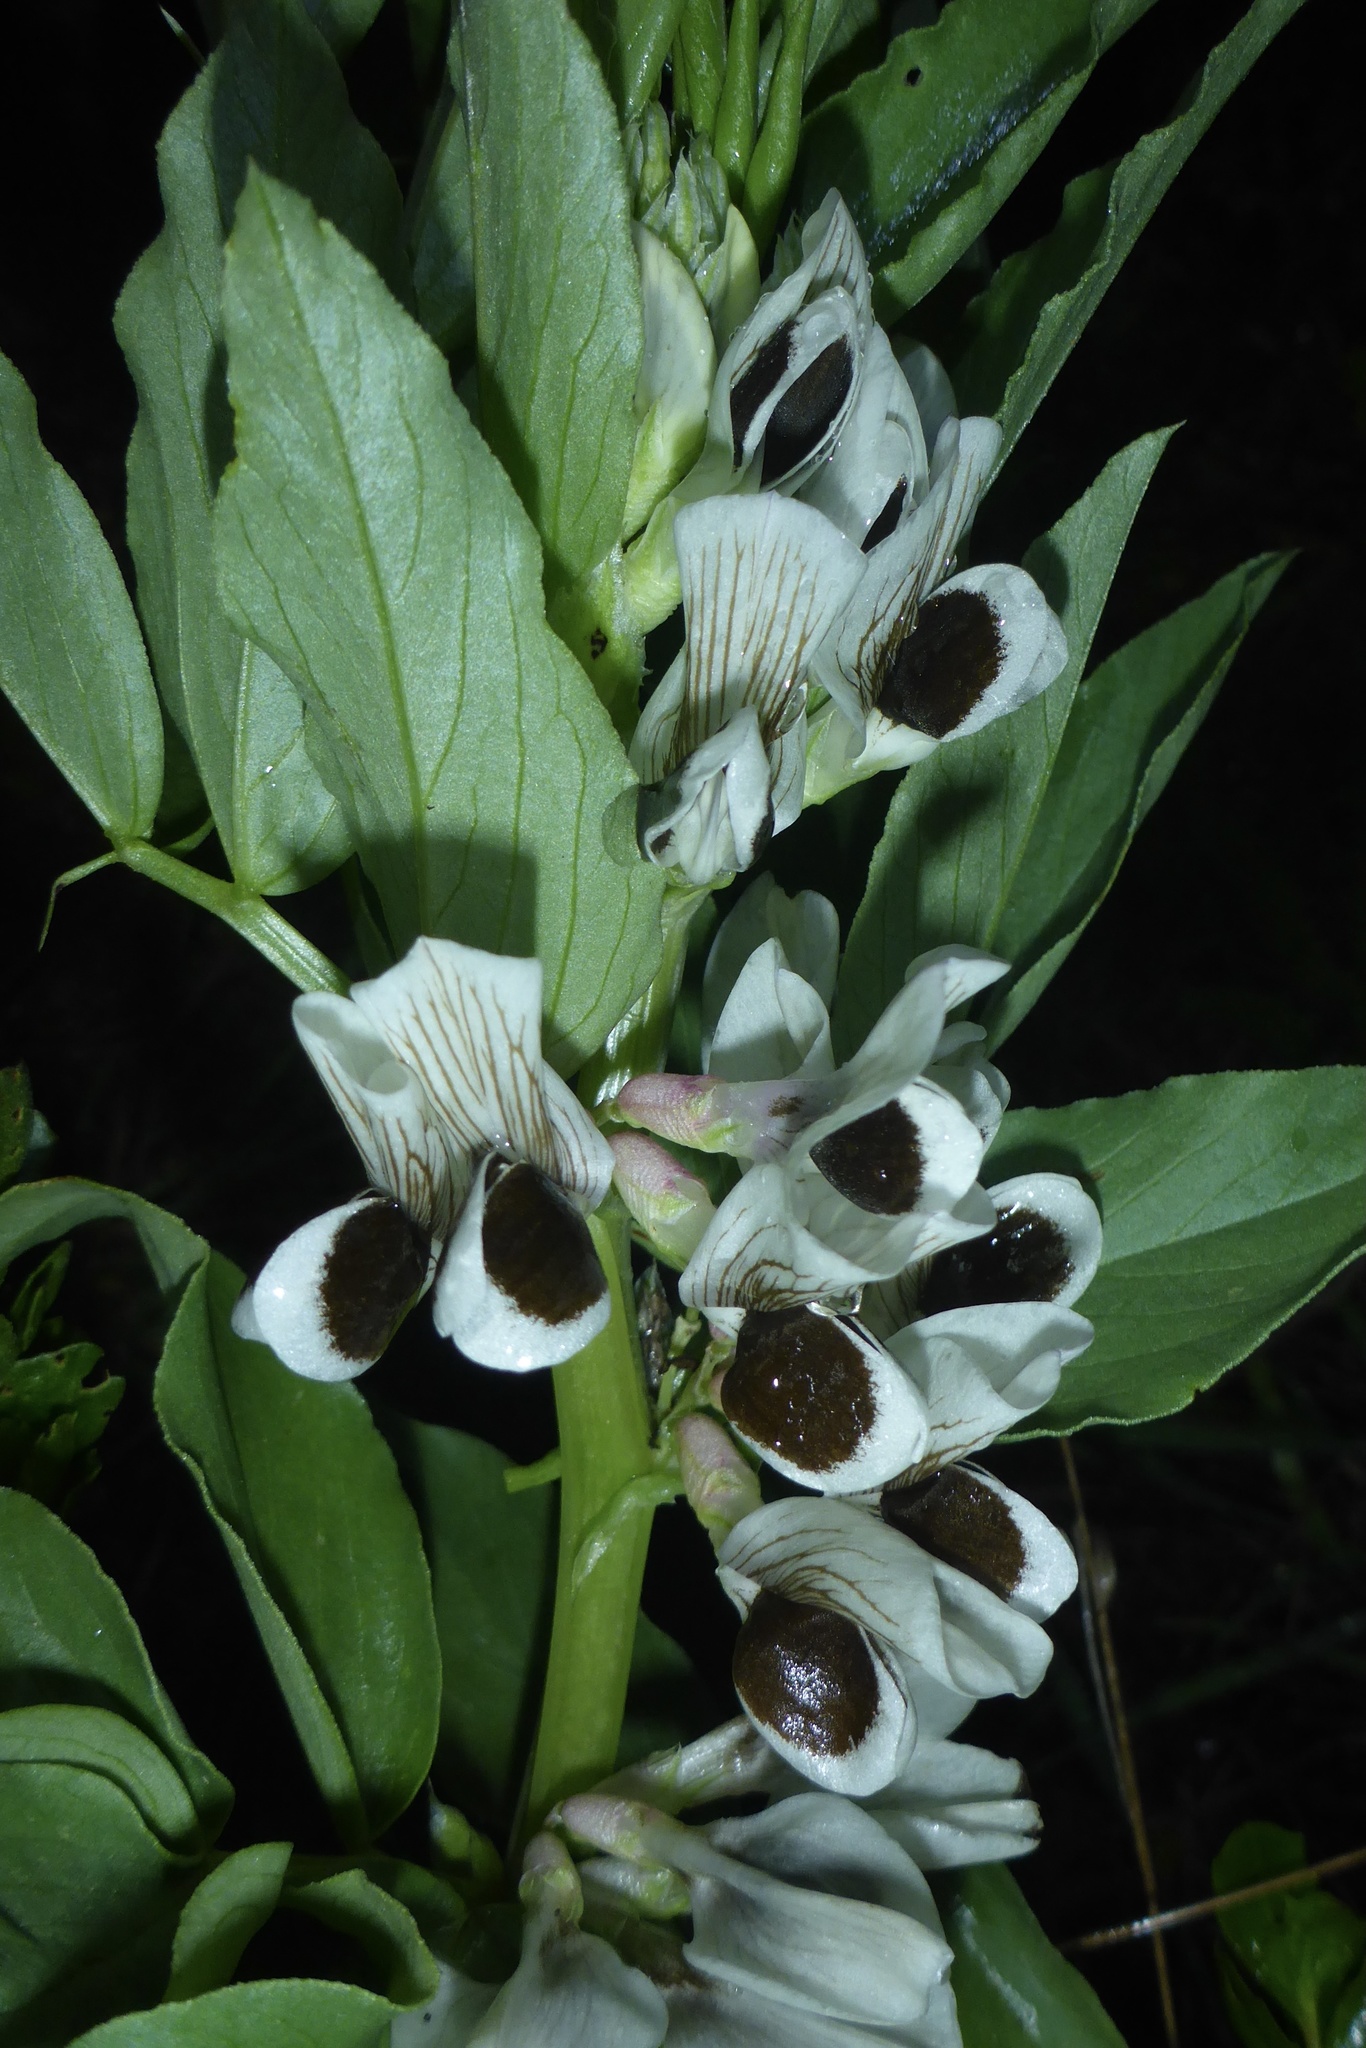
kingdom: Plantae
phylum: Tracheophyta
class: Magnoliopsida
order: Fabales
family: Fabaceae
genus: Vicia
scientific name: Vicia faba
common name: Broad bean
